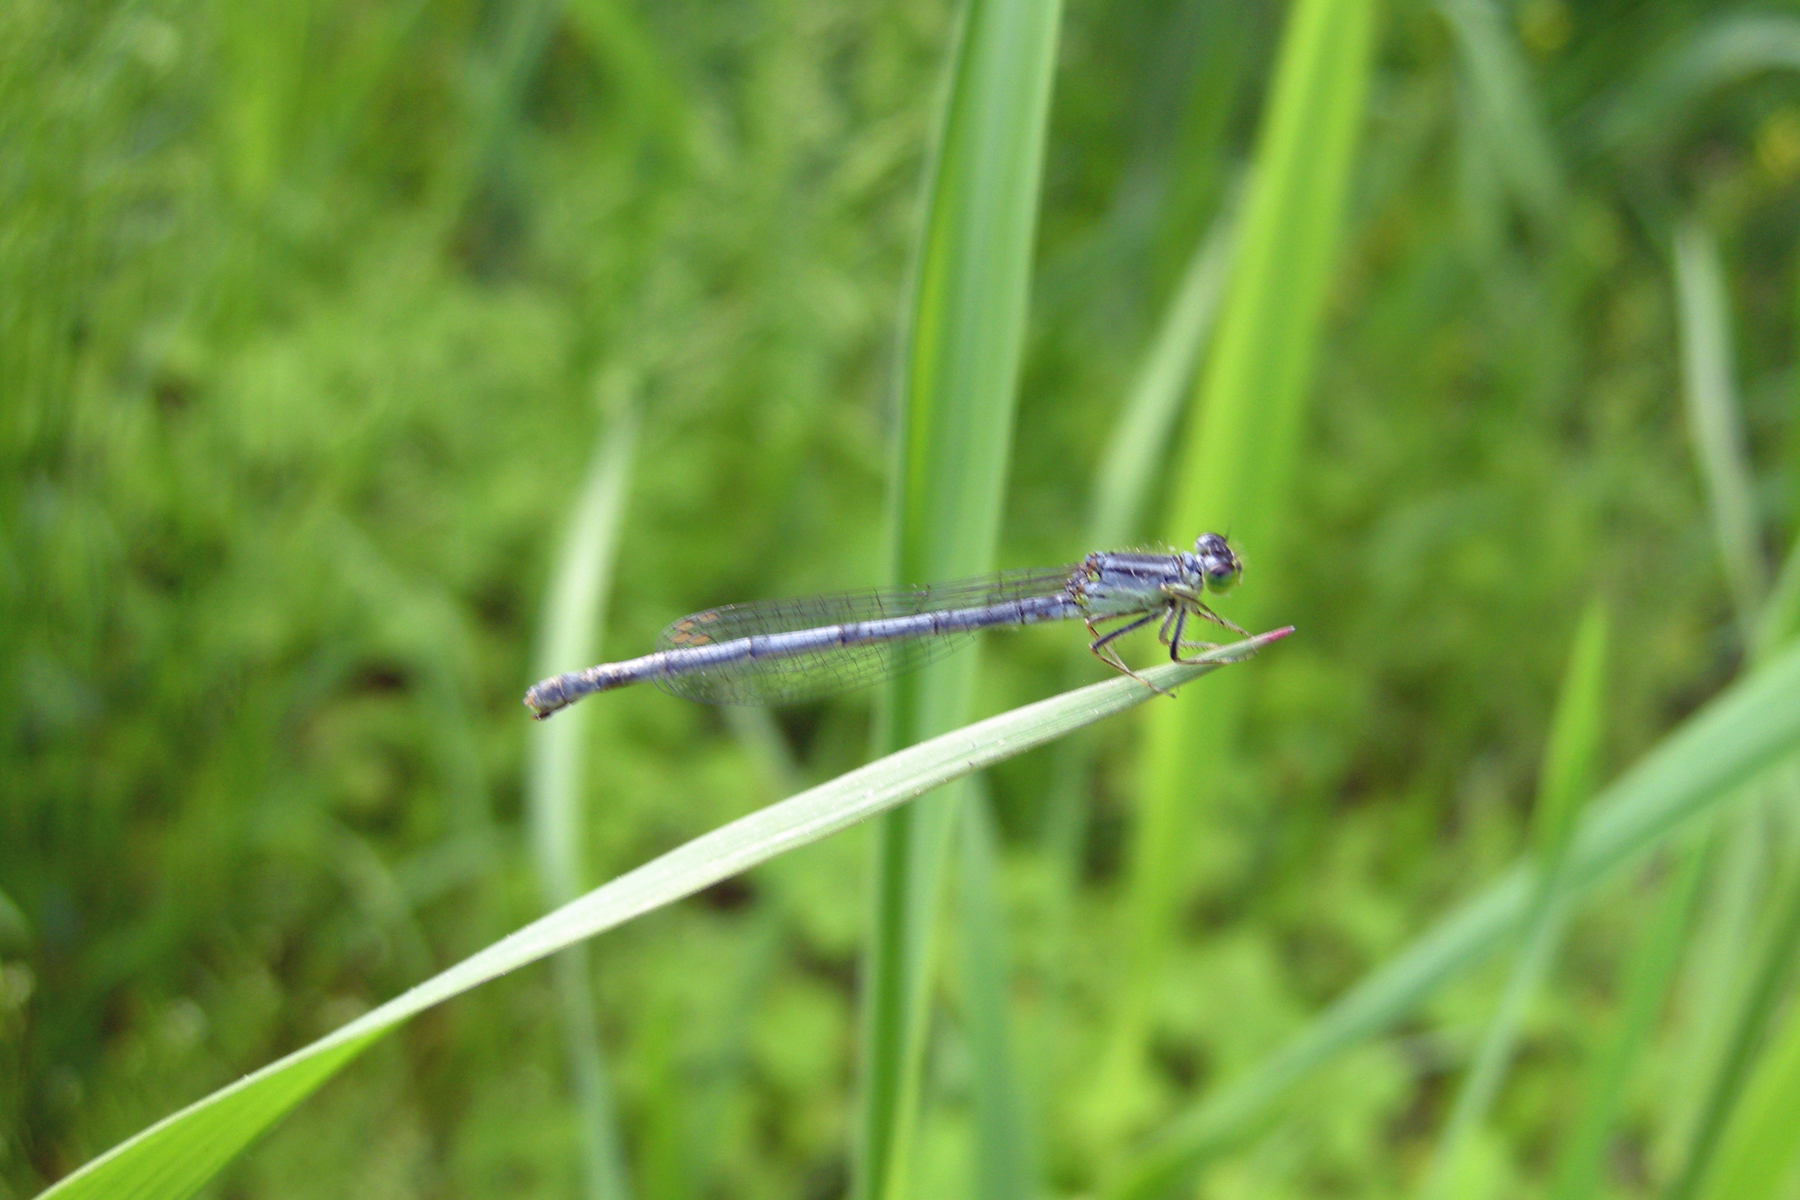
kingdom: Animalia
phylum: Arthropoda
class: Insecta
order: Odonata
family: Coenagrionidae
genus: Ischnura
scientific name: Ischnura verticalis
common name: Eastern forktail
